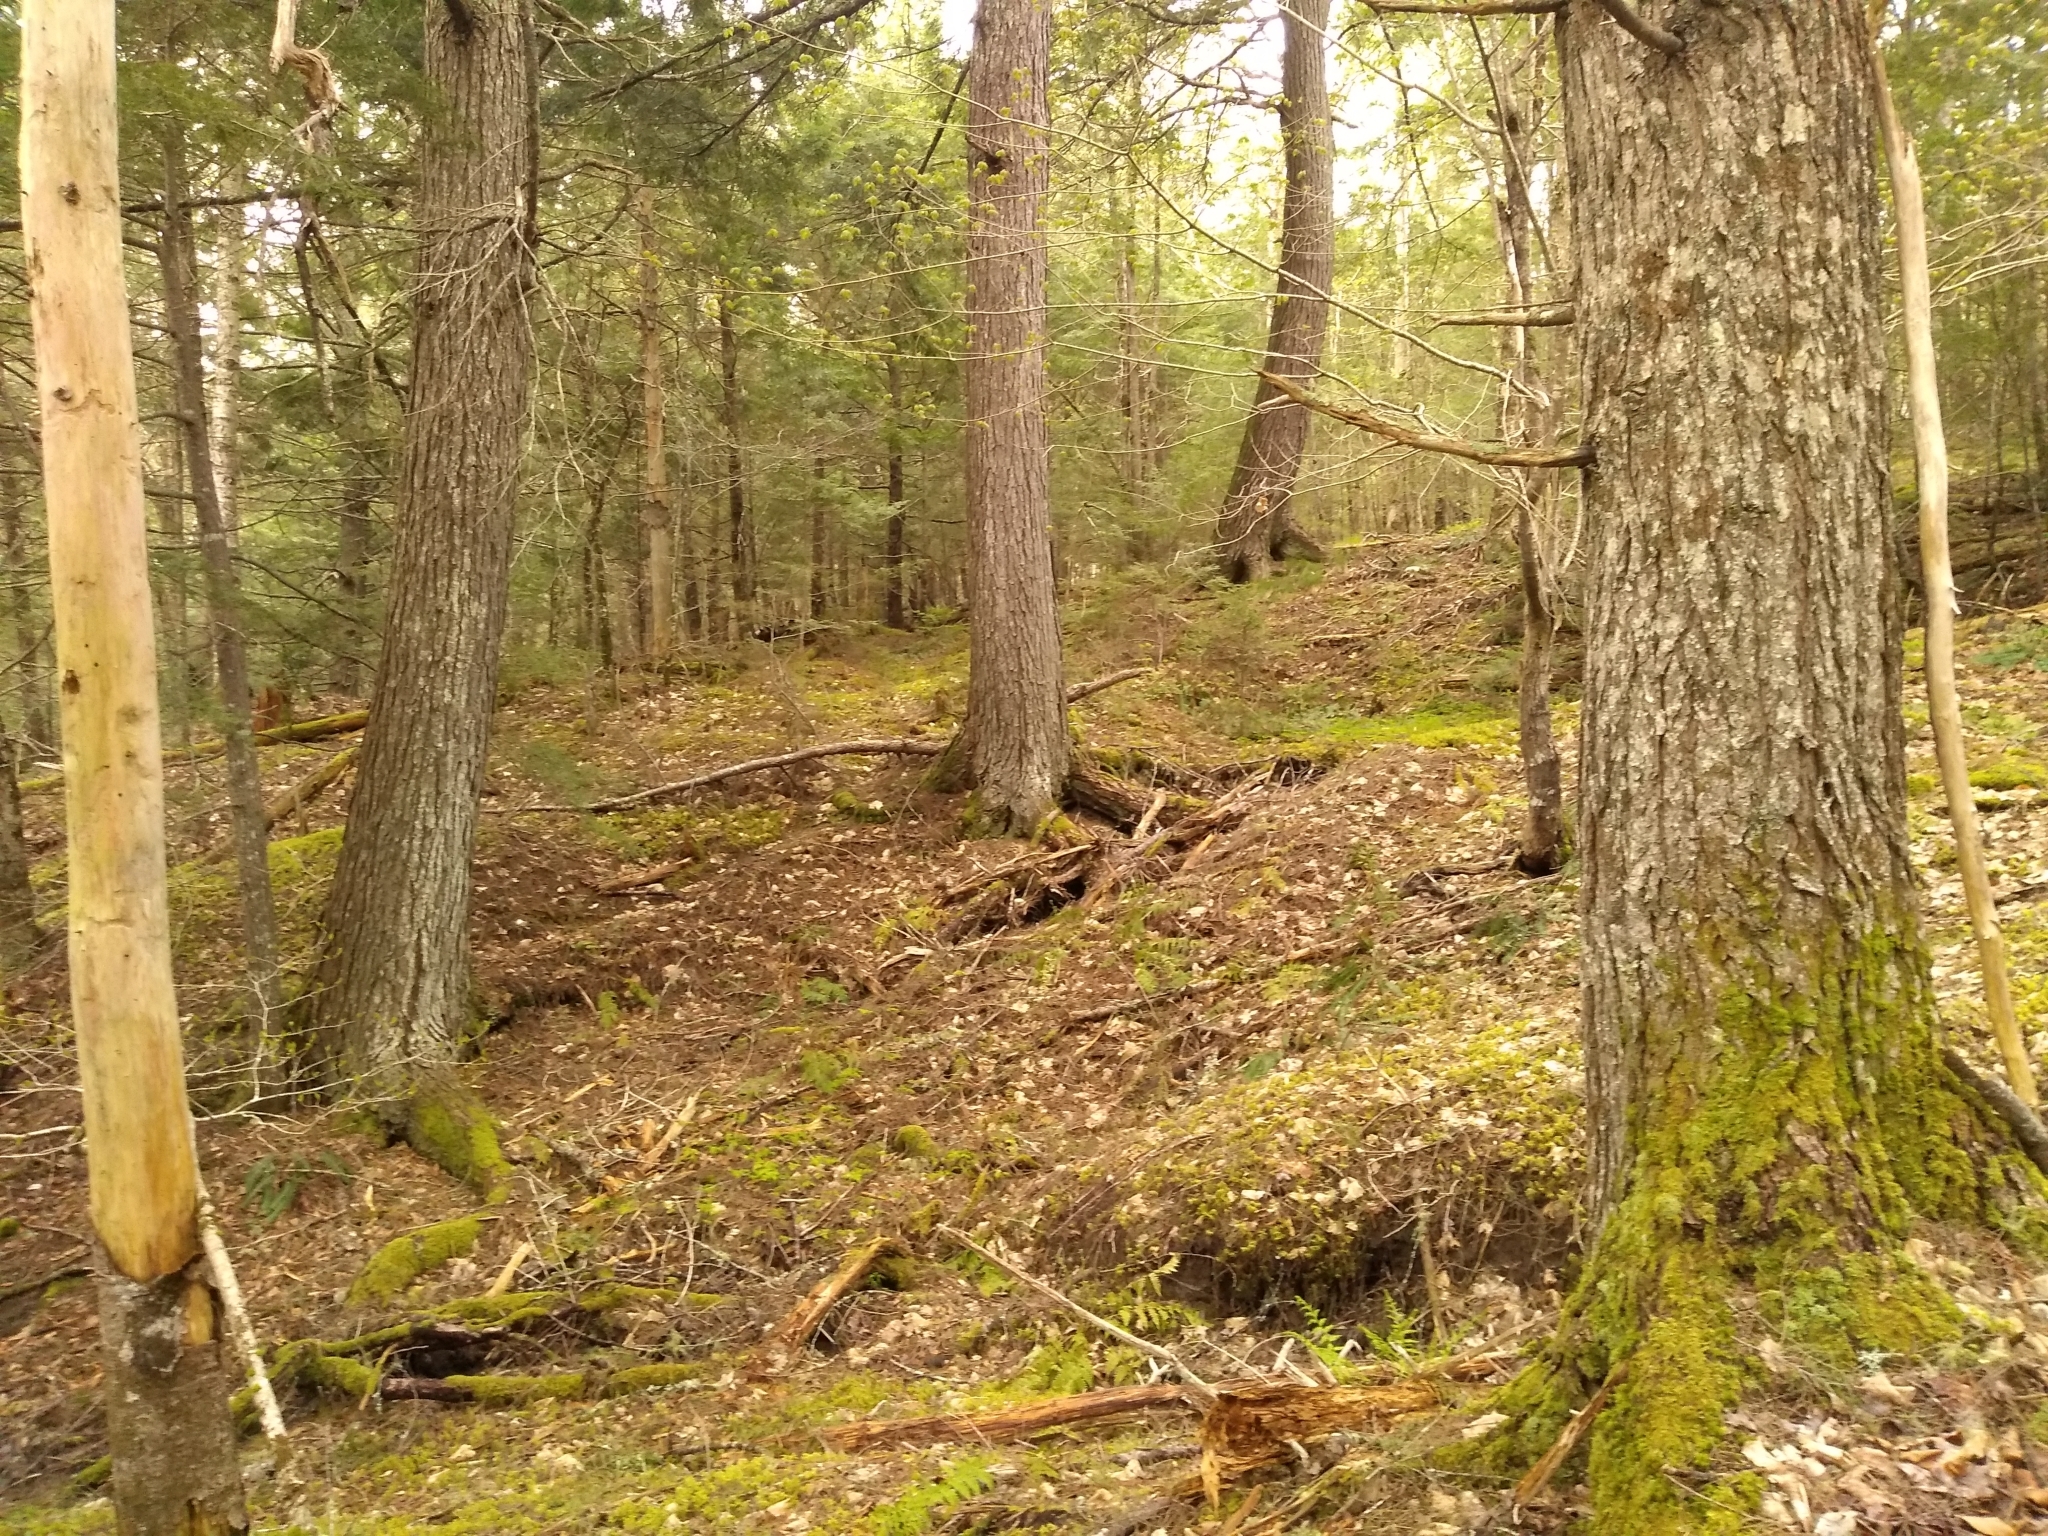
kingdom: Plantae
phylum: Tracheophyta
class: Pinopsida
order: Pinales
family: Pinaceae
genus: Tsuga
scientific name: Tsuga canadensis
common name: Eastern hemlock
